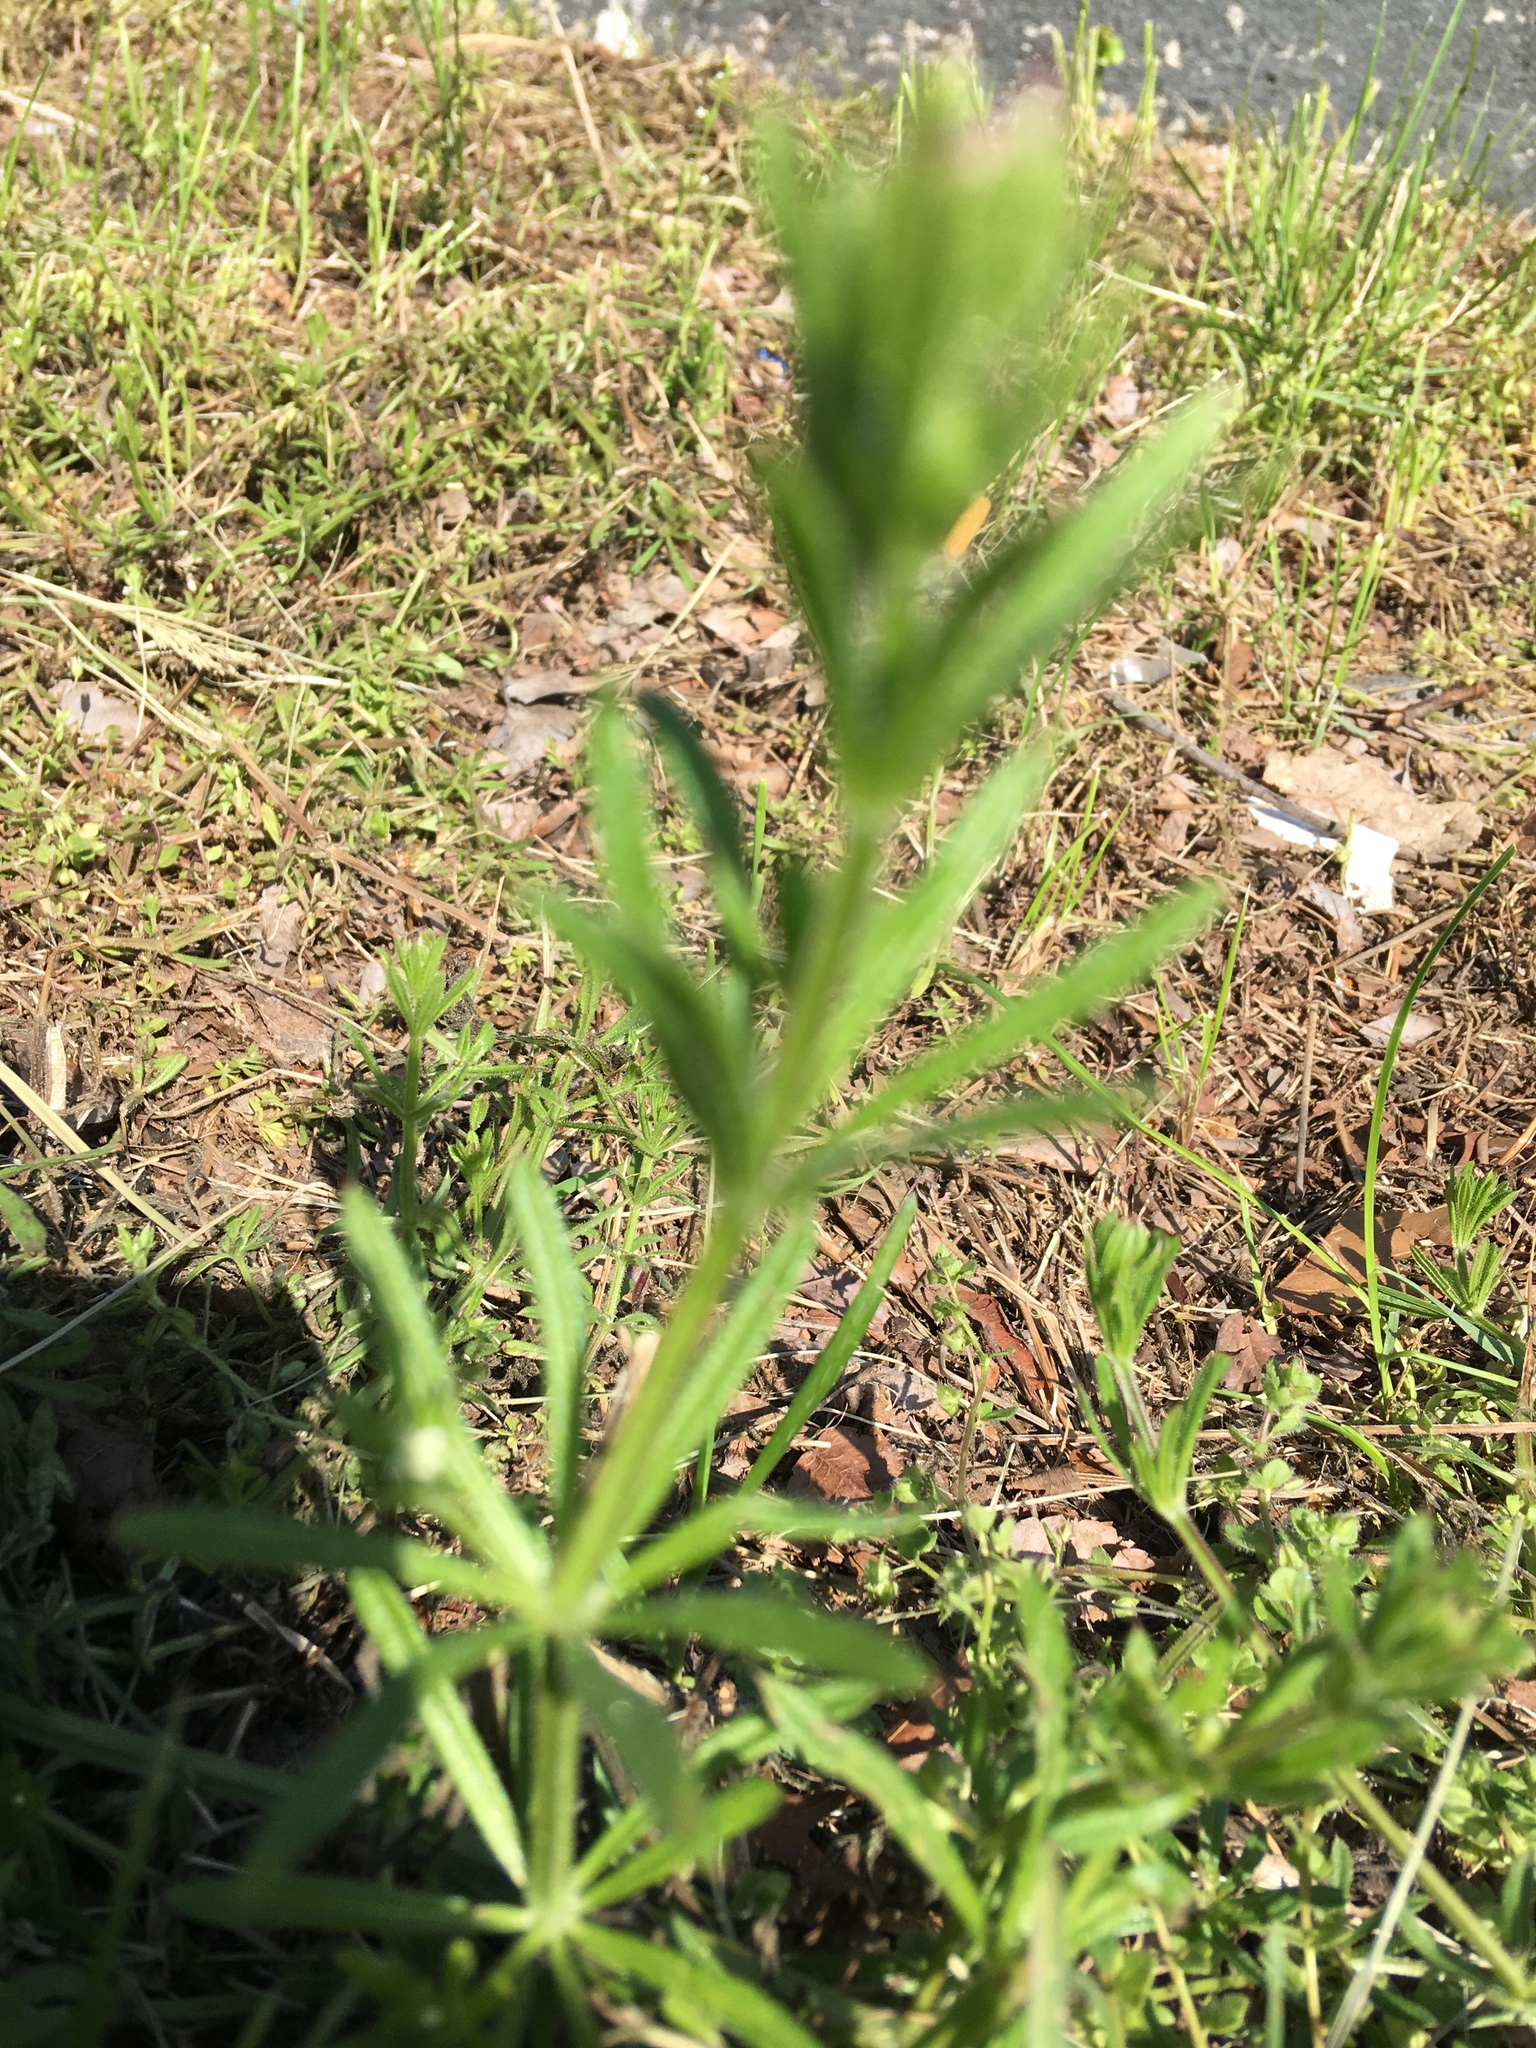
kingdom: Plantae
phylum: Tracheophyta
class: Magnoliopsida
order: Gentianales
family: Rubiaceae
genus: Galium
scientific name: Galium aparine
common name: Cleavers
